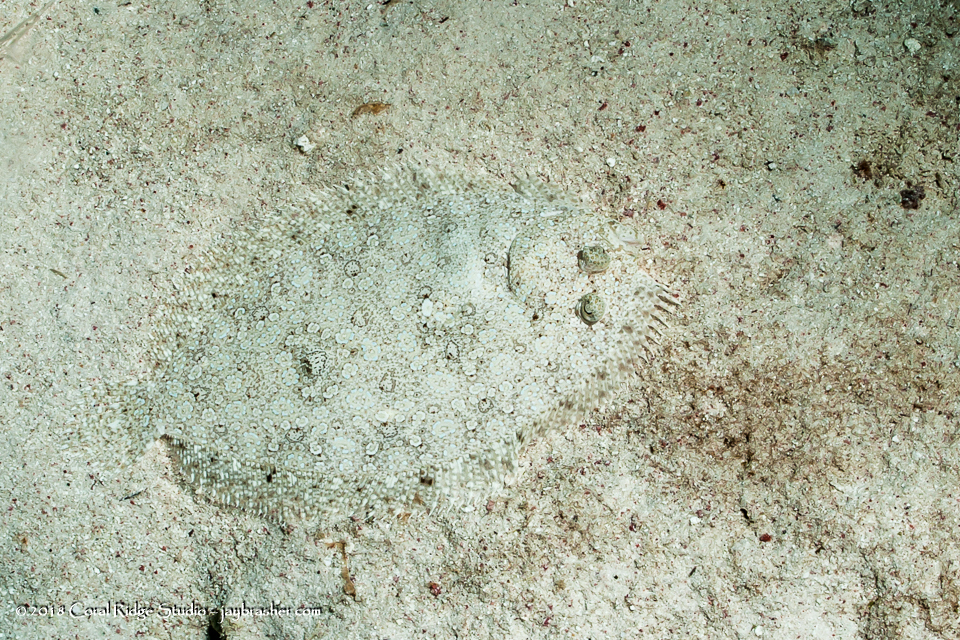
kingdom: Animalia
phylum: Chordata
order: Pleuronectiformes
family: Bothidae
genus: Bothus
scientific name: Bothus lunatus
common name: Peacock flounder
